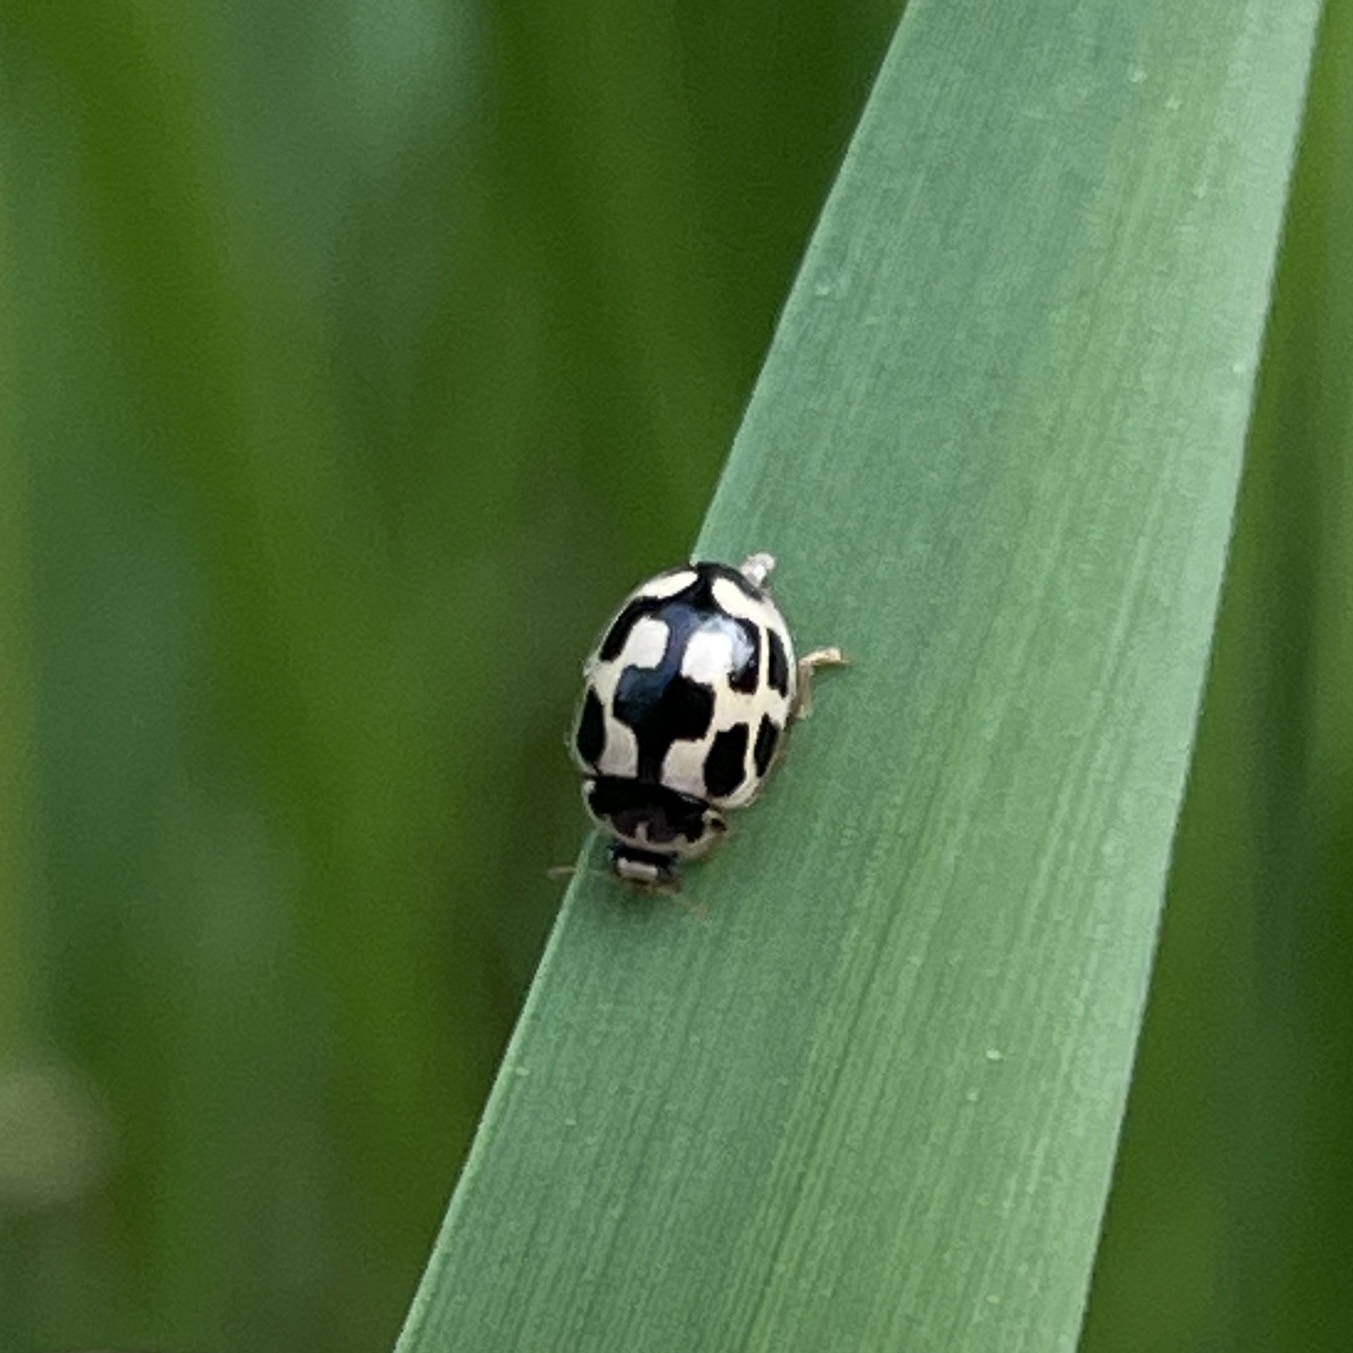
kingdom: Animalia
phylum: Arthropoda
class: Insecta
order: Coleoptera
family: Coccinellidae
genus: Propylaea
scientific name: Propylaea quatuordecimpunctata
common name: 14-spotted ladybird beetle
